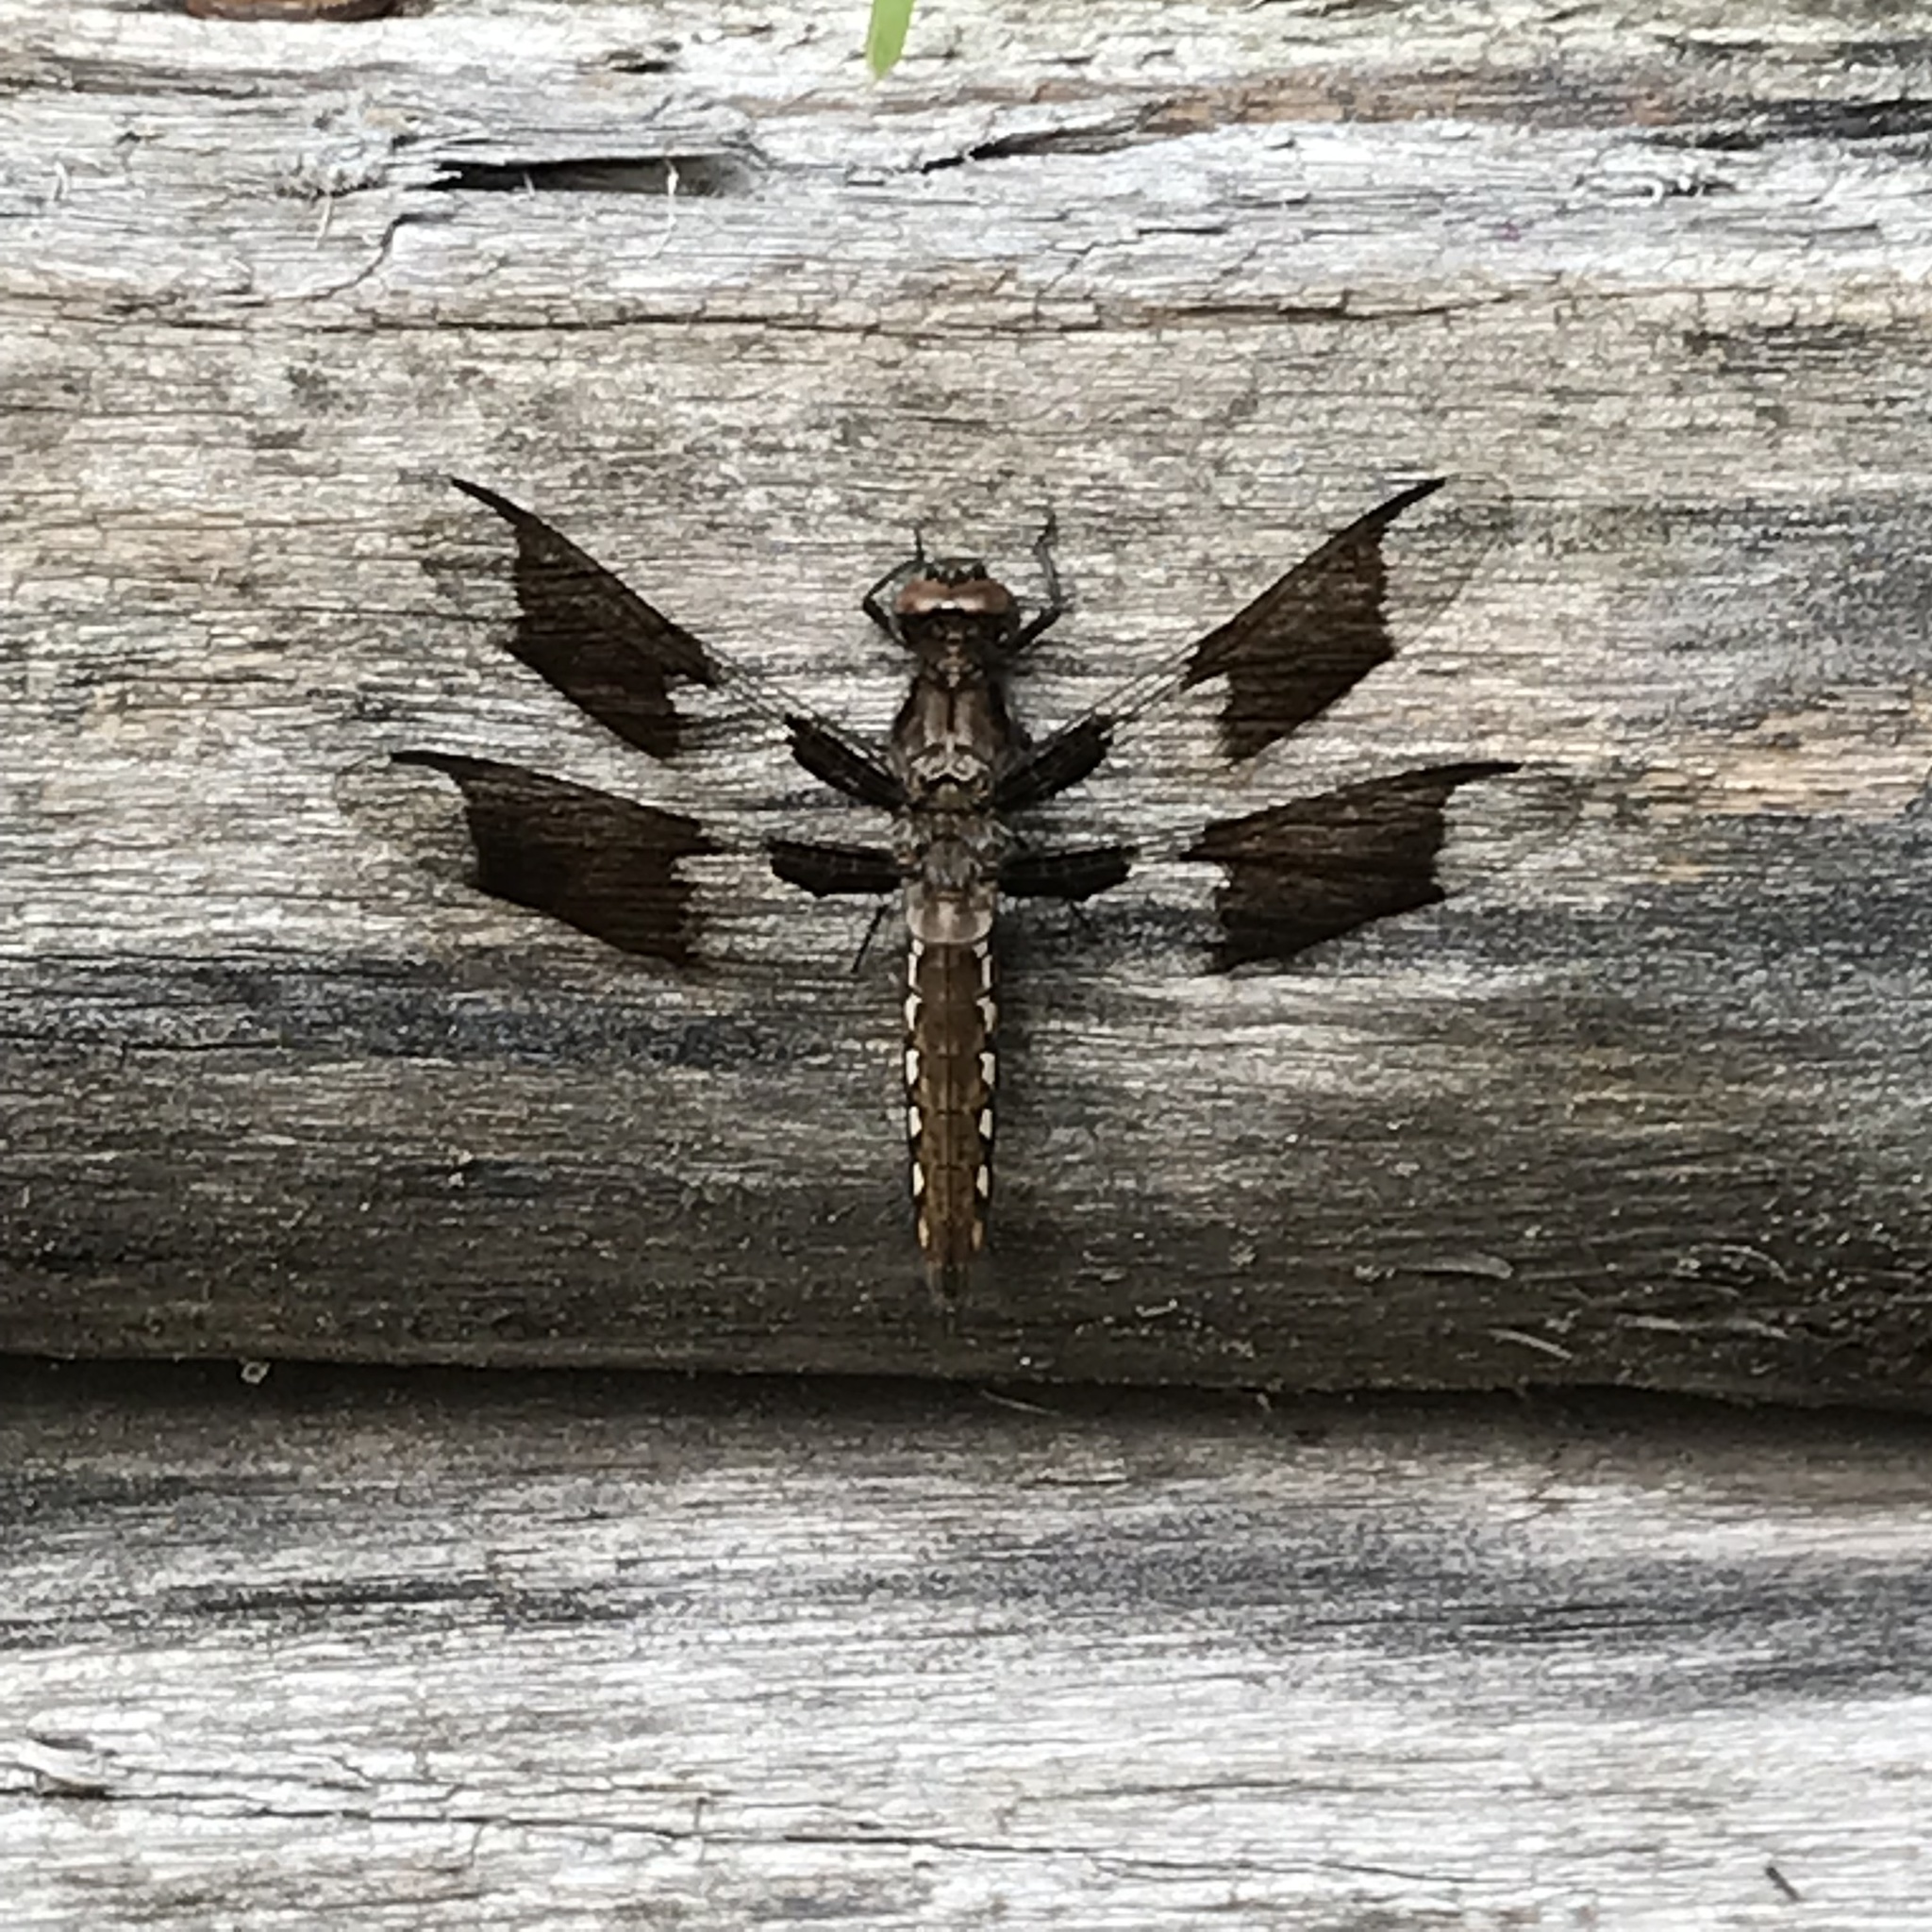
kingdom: Animalia
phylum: Arthropoda
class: Insecta
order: Odonata
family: Libellulidae
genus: Plathemis
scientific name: Plathemis lydia
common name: Common whitetail
